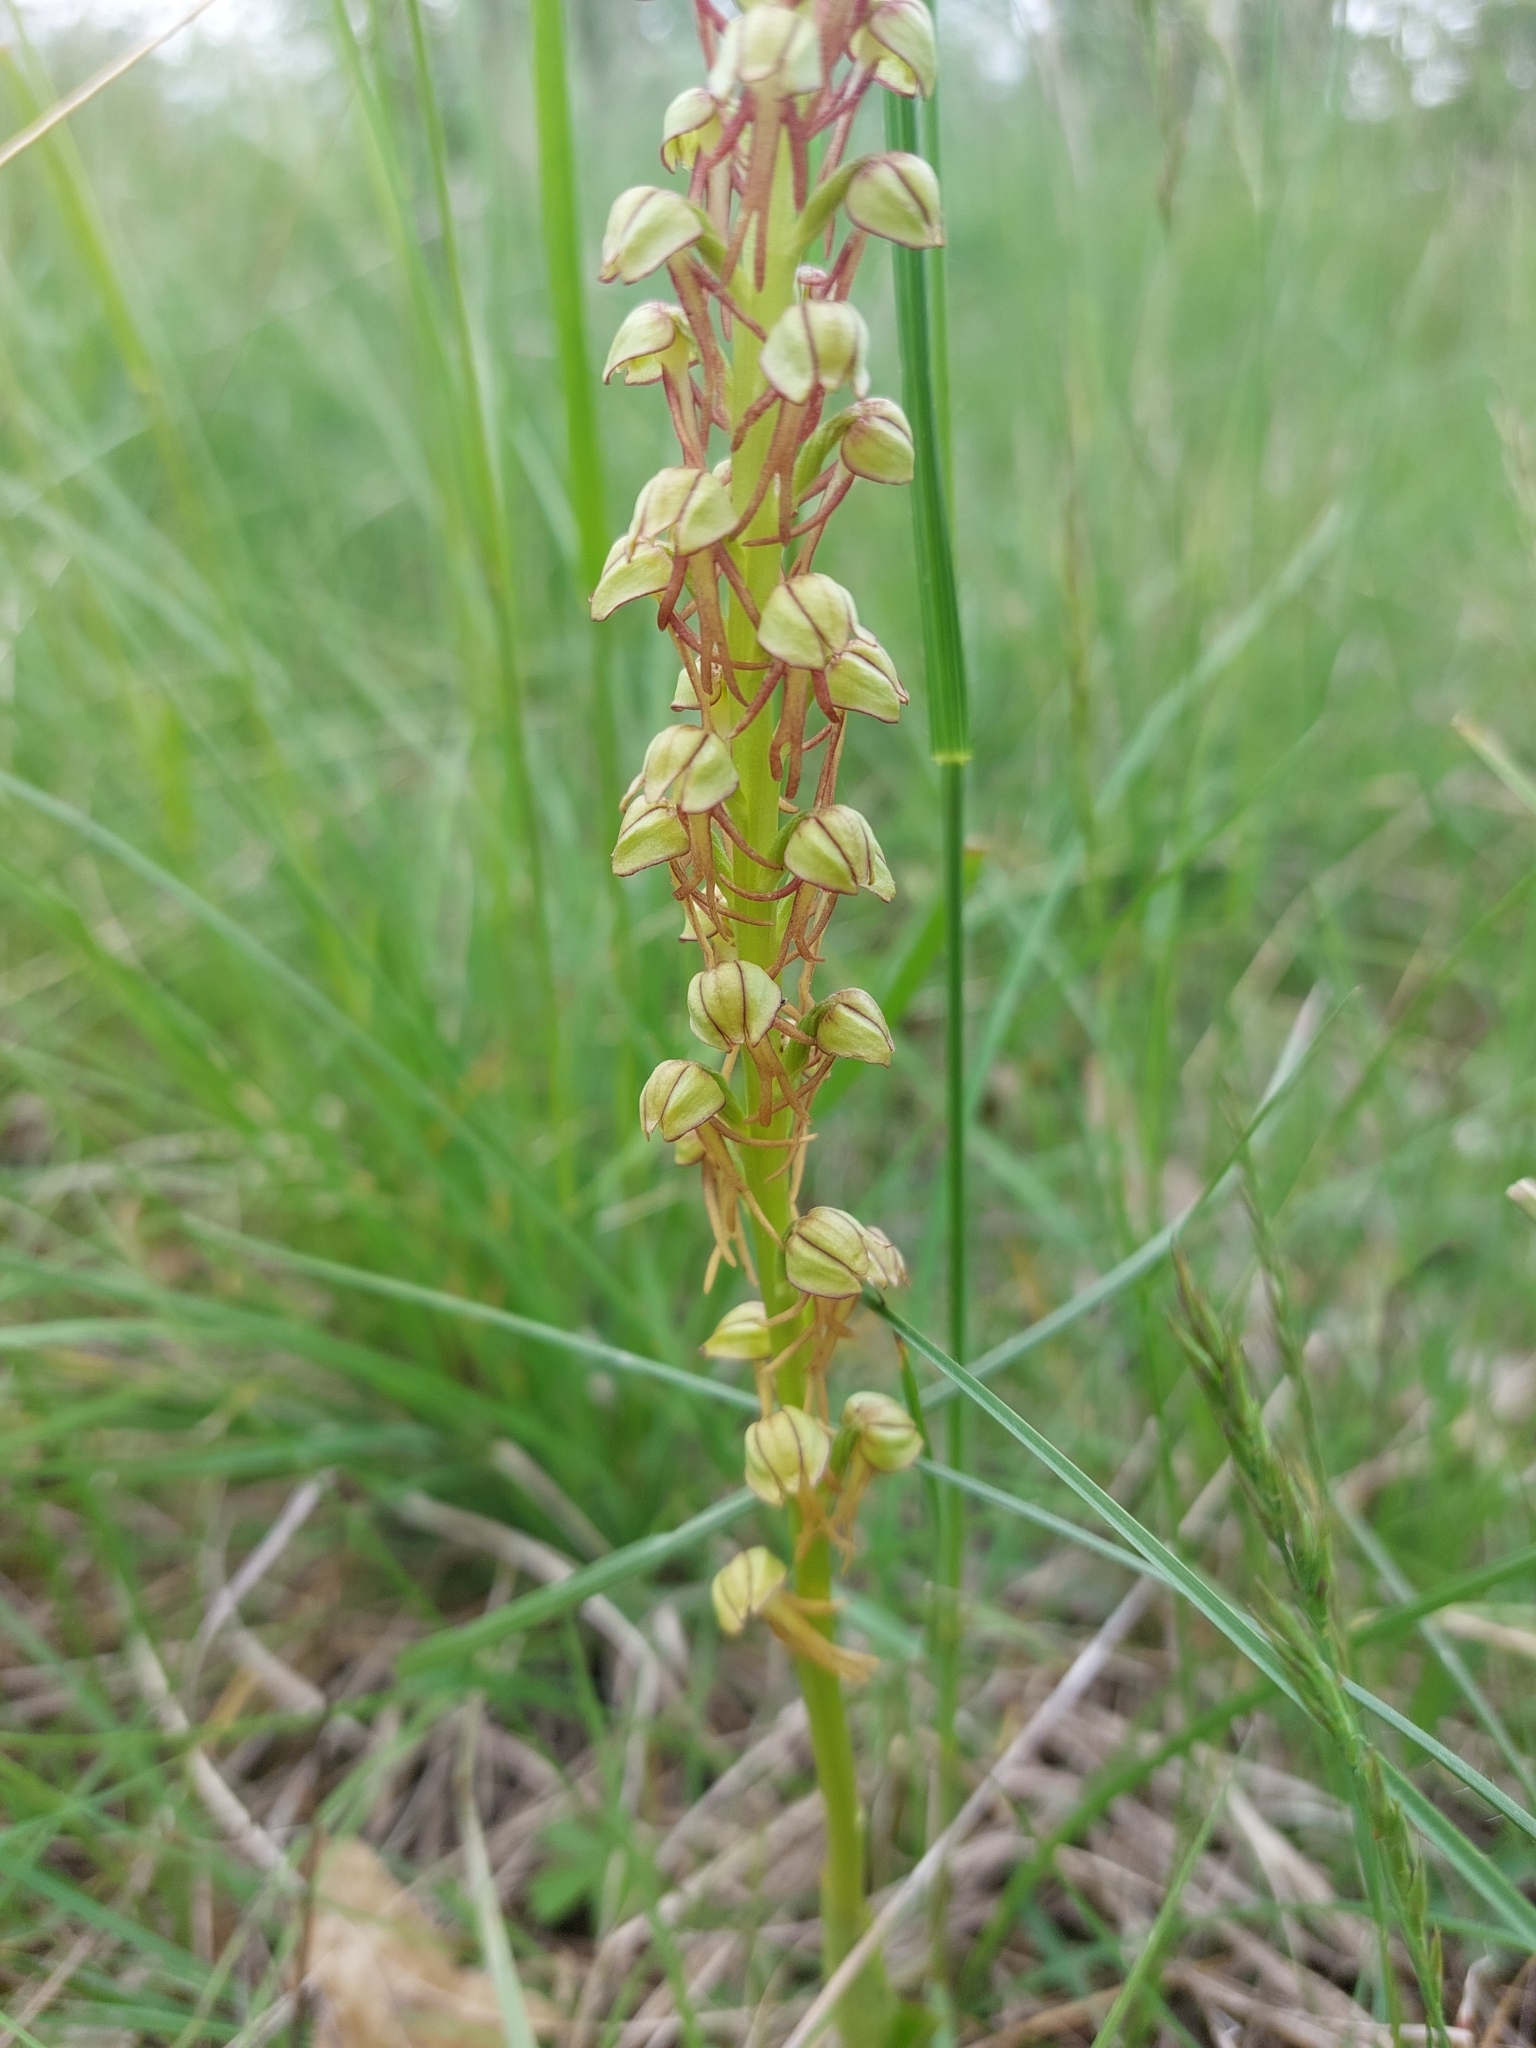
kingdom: Plantae
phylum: Tracheophyta
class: Liliopsida
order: Asparagales
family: Orchidaceae
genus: Orchis
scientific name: Orchis anthropophora
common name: Man orchid
